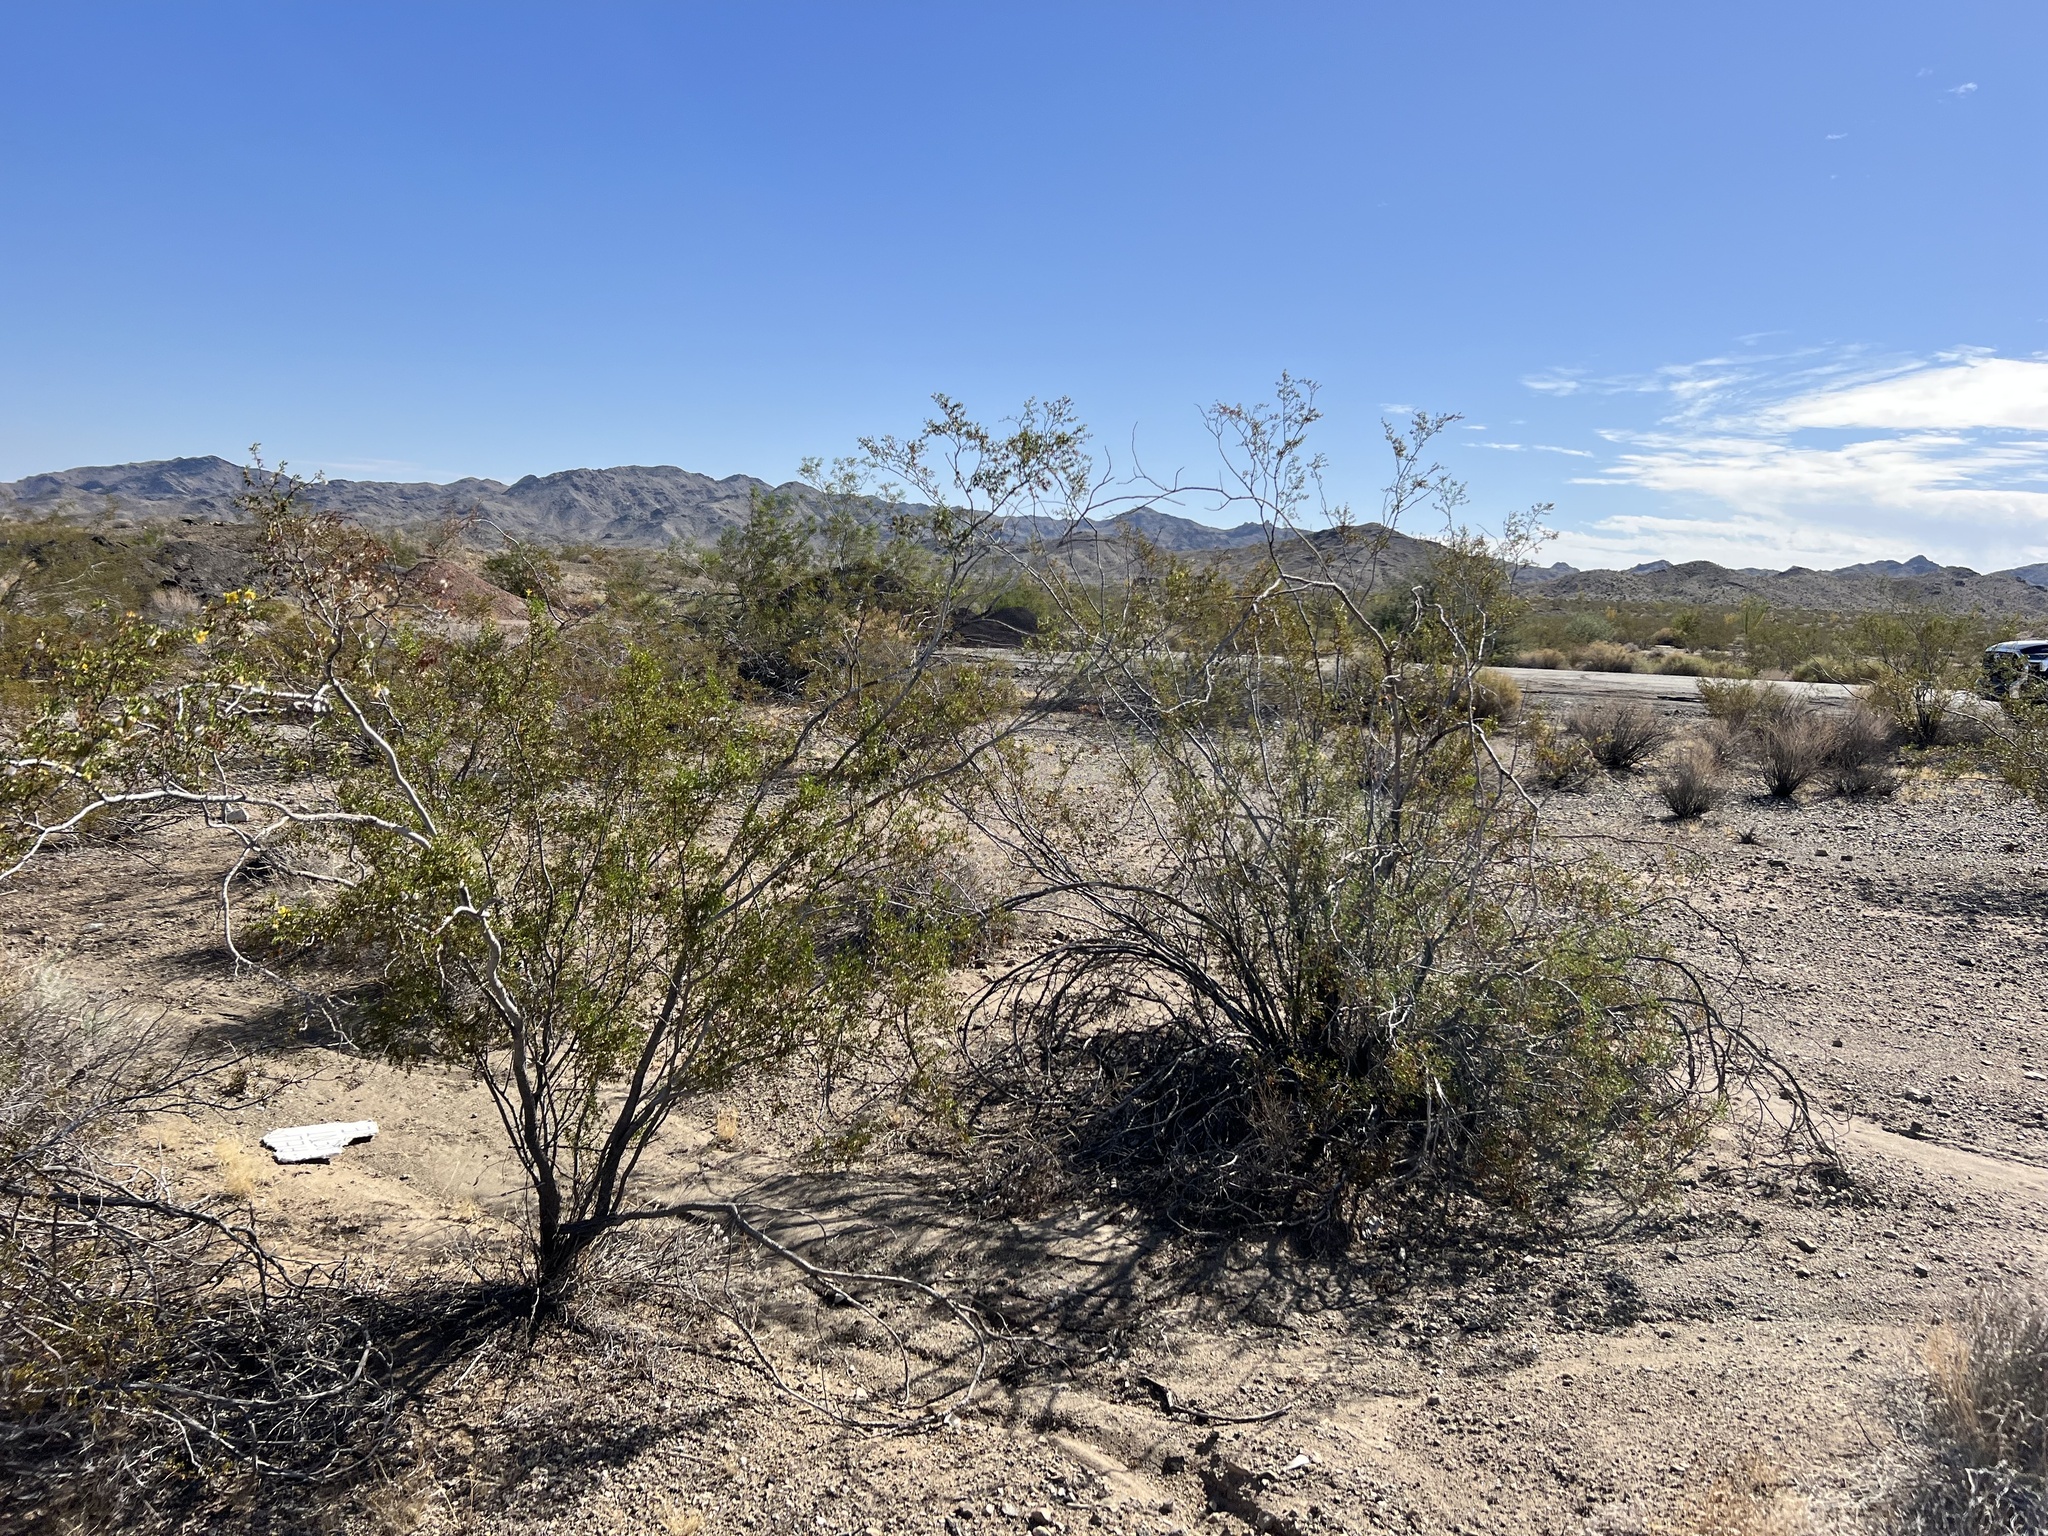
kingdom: Plantae
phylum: Tracheophyta
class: Magnoliopsida
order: Zygophyllales
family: Zygophyllaceae
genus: Larrea
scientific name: Larrea tridentata
